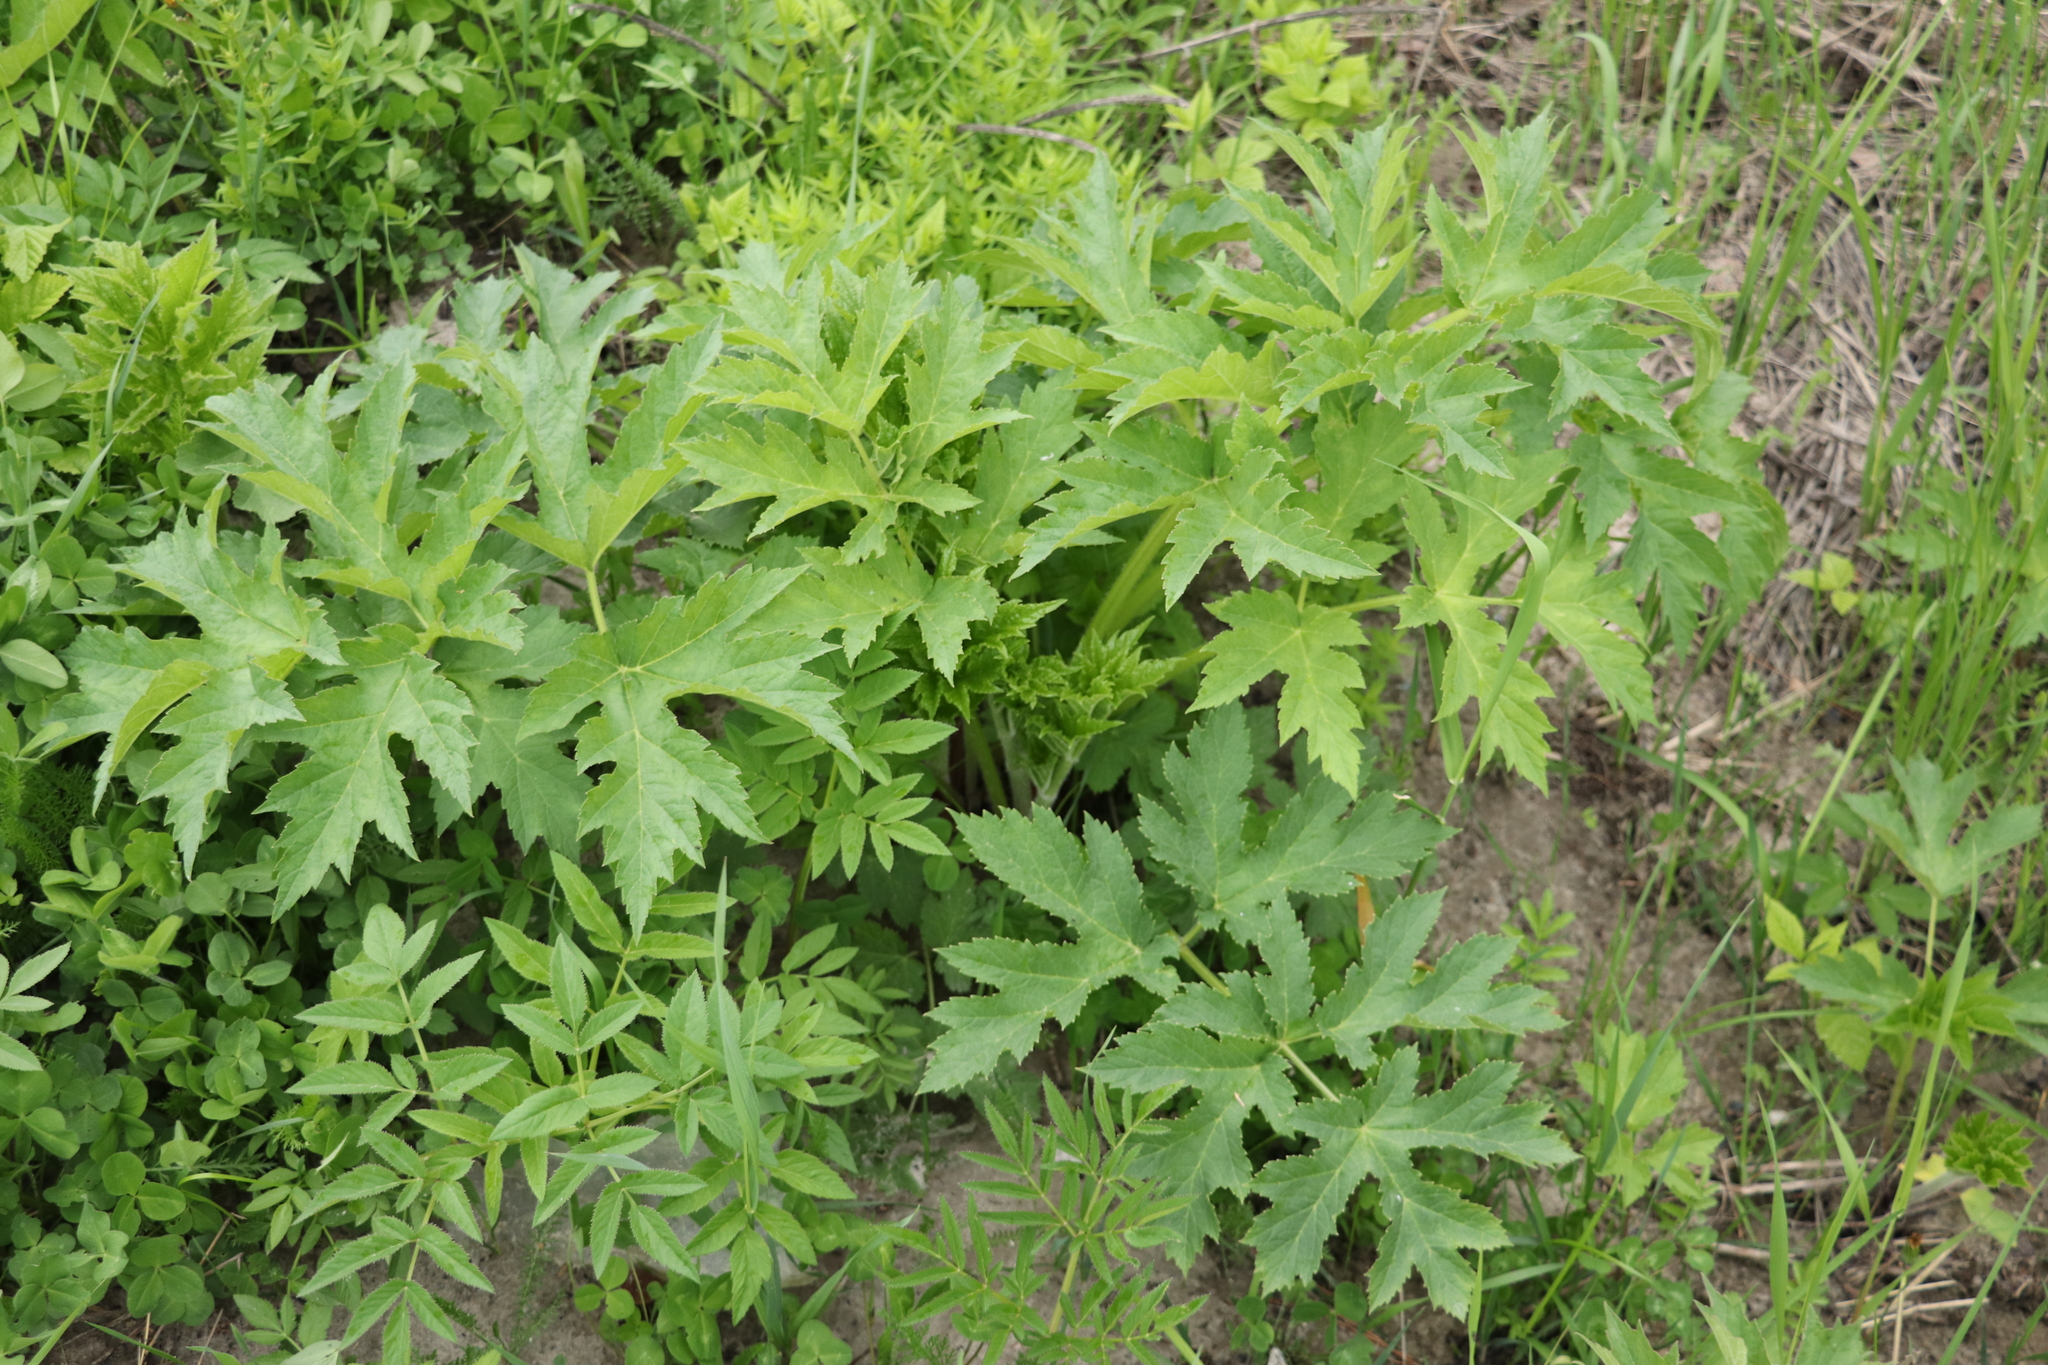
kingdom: Plantae
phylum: Tracheophyta
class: Magnoliopsida
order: Apiales
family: Apiaceae
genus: Heracleum
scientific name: Heracleum dissectum
